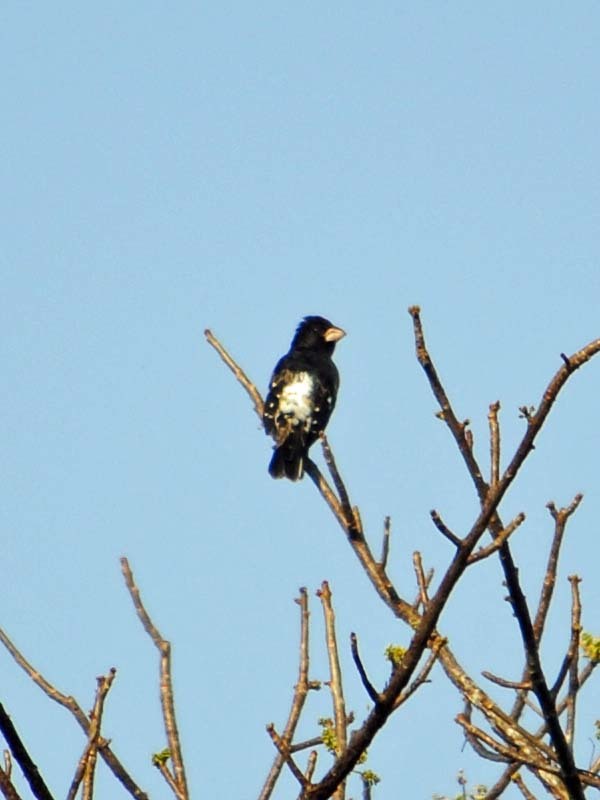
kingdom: Animalia
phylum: Chordata
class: Aves
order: Passeriformes
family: Cardinalidae
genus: Pheucticus
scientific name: Pheucticus ludovicianus
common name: Rose-breasted grosbeak
